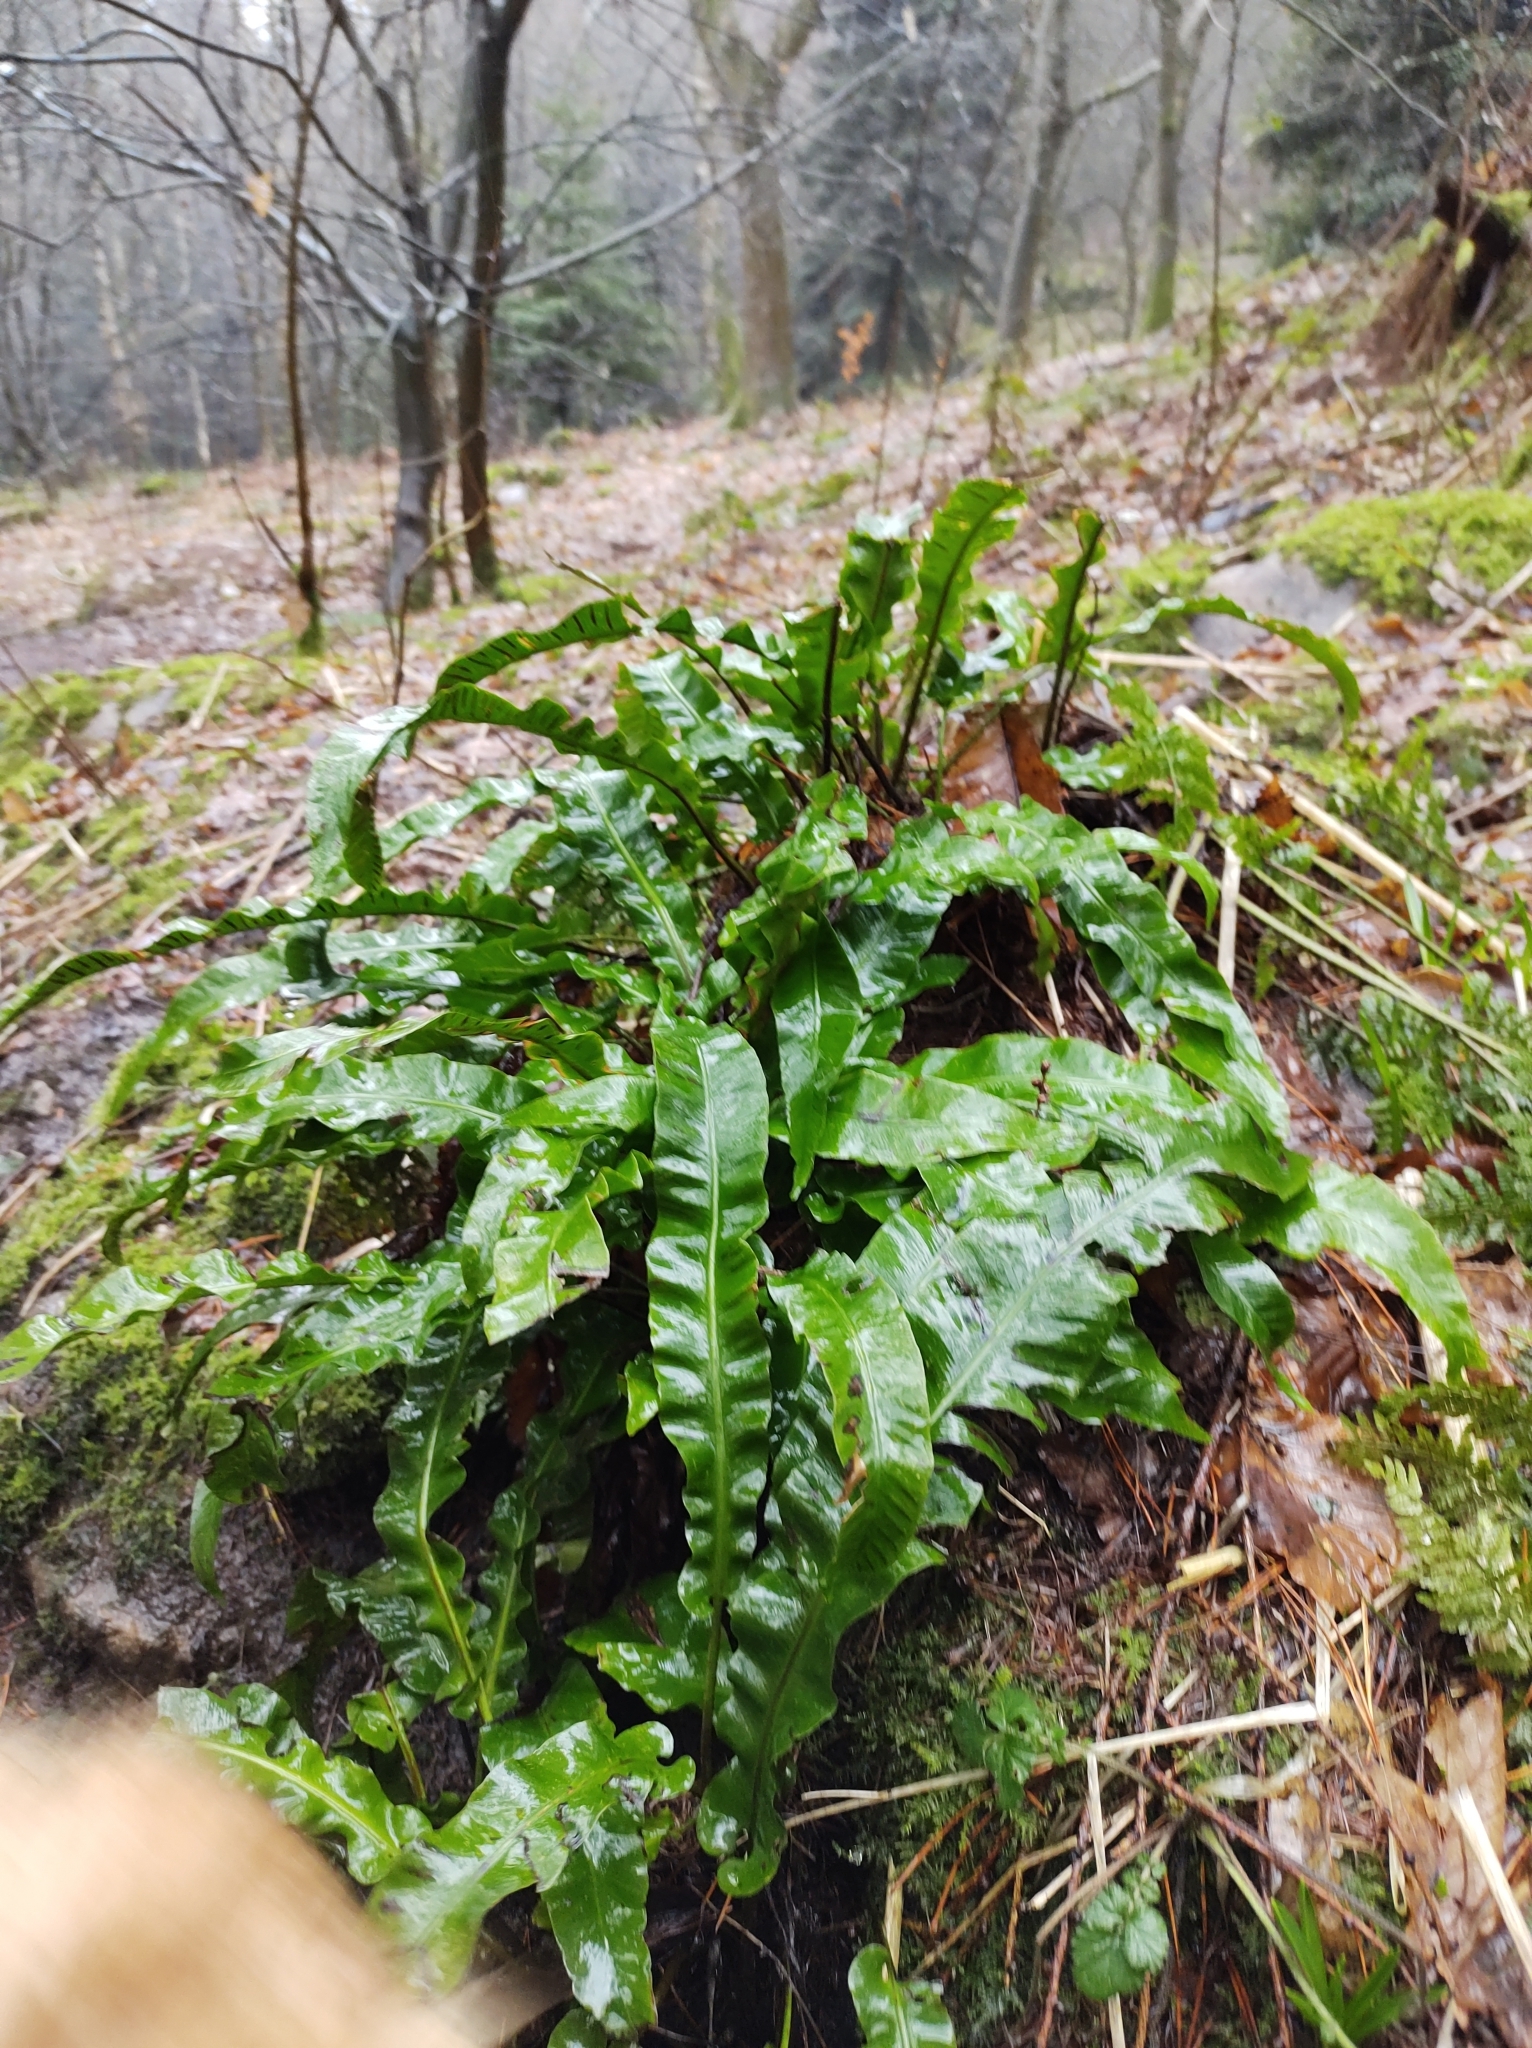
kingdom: Plantae
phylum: Tracheophyta
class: Polypodiopsida
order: Polypodiales
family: Aspleniaceae
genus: Asplenium
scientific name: Asplenium scolopendrium
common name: Hart's-tongue fern
